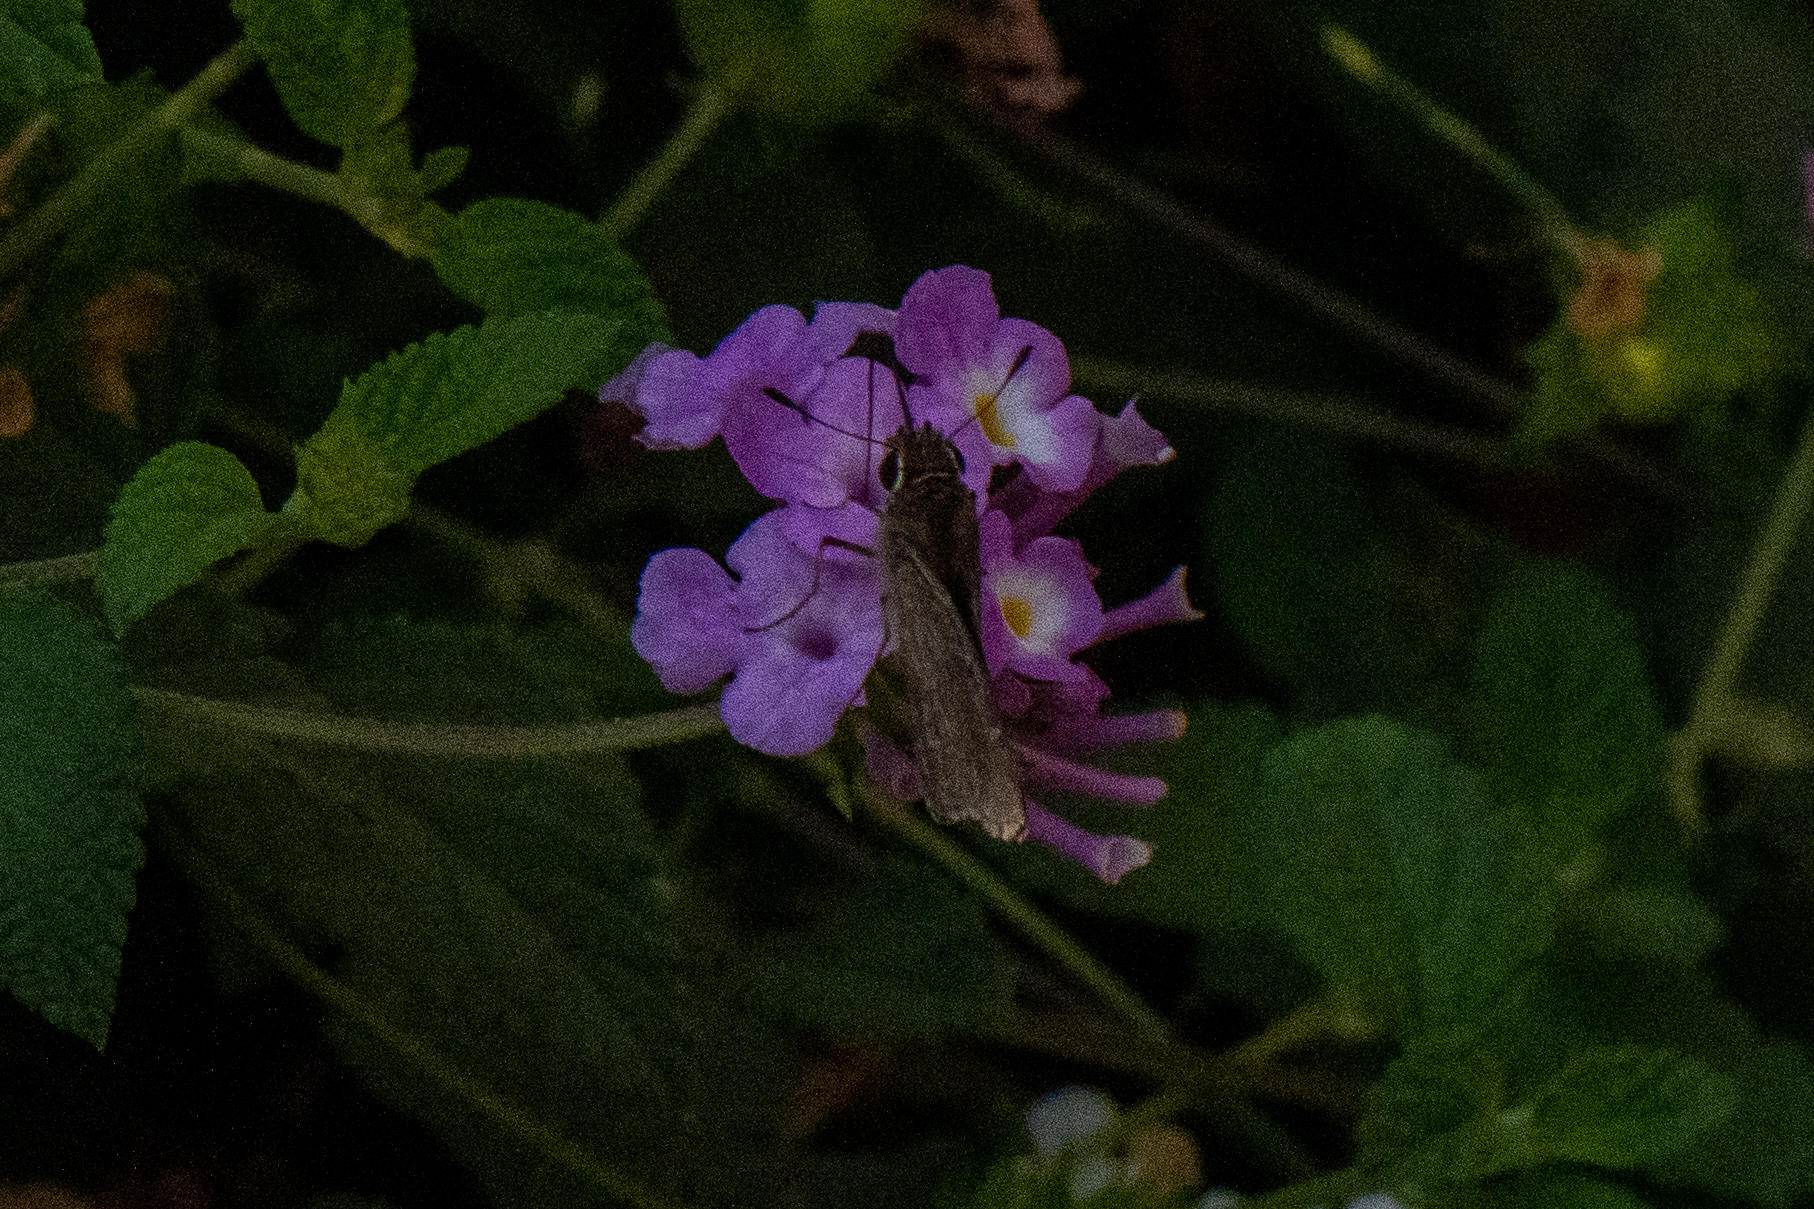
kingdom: Animalia
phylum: Arthropoda
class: Insecta
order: Lepidoptera
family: Hesperiidae
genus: Lerodea
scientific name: Lerodea eufala
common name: Eufala skipper
